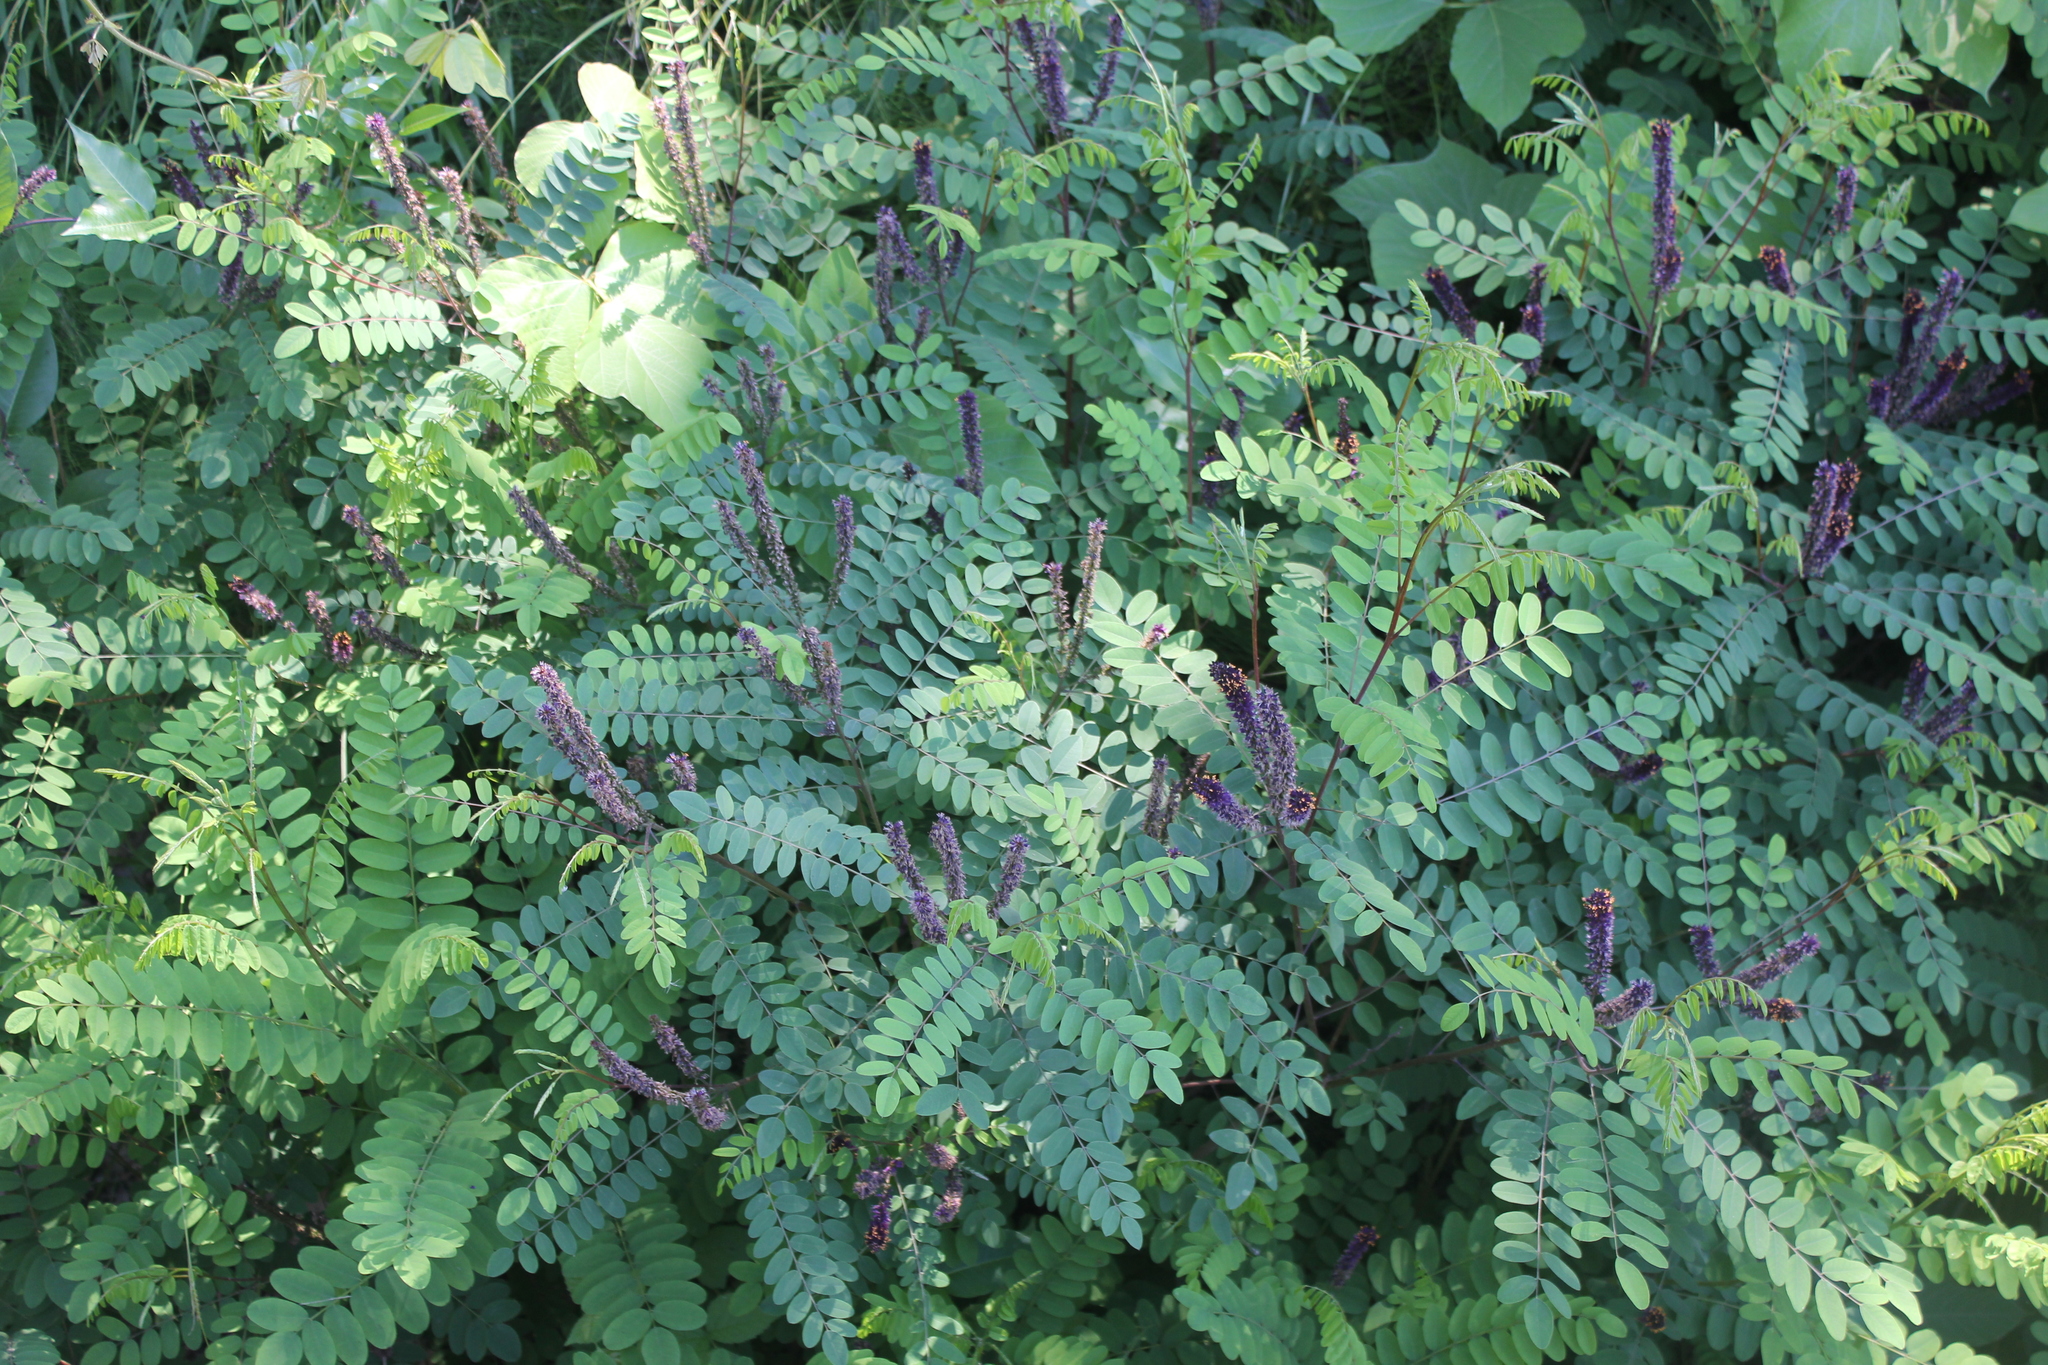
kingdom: Plantae
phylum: Tracheophyta
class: Magnoliopsida
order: Fabales
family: Fabaceae
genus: Amorpha
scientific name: Amorpha
